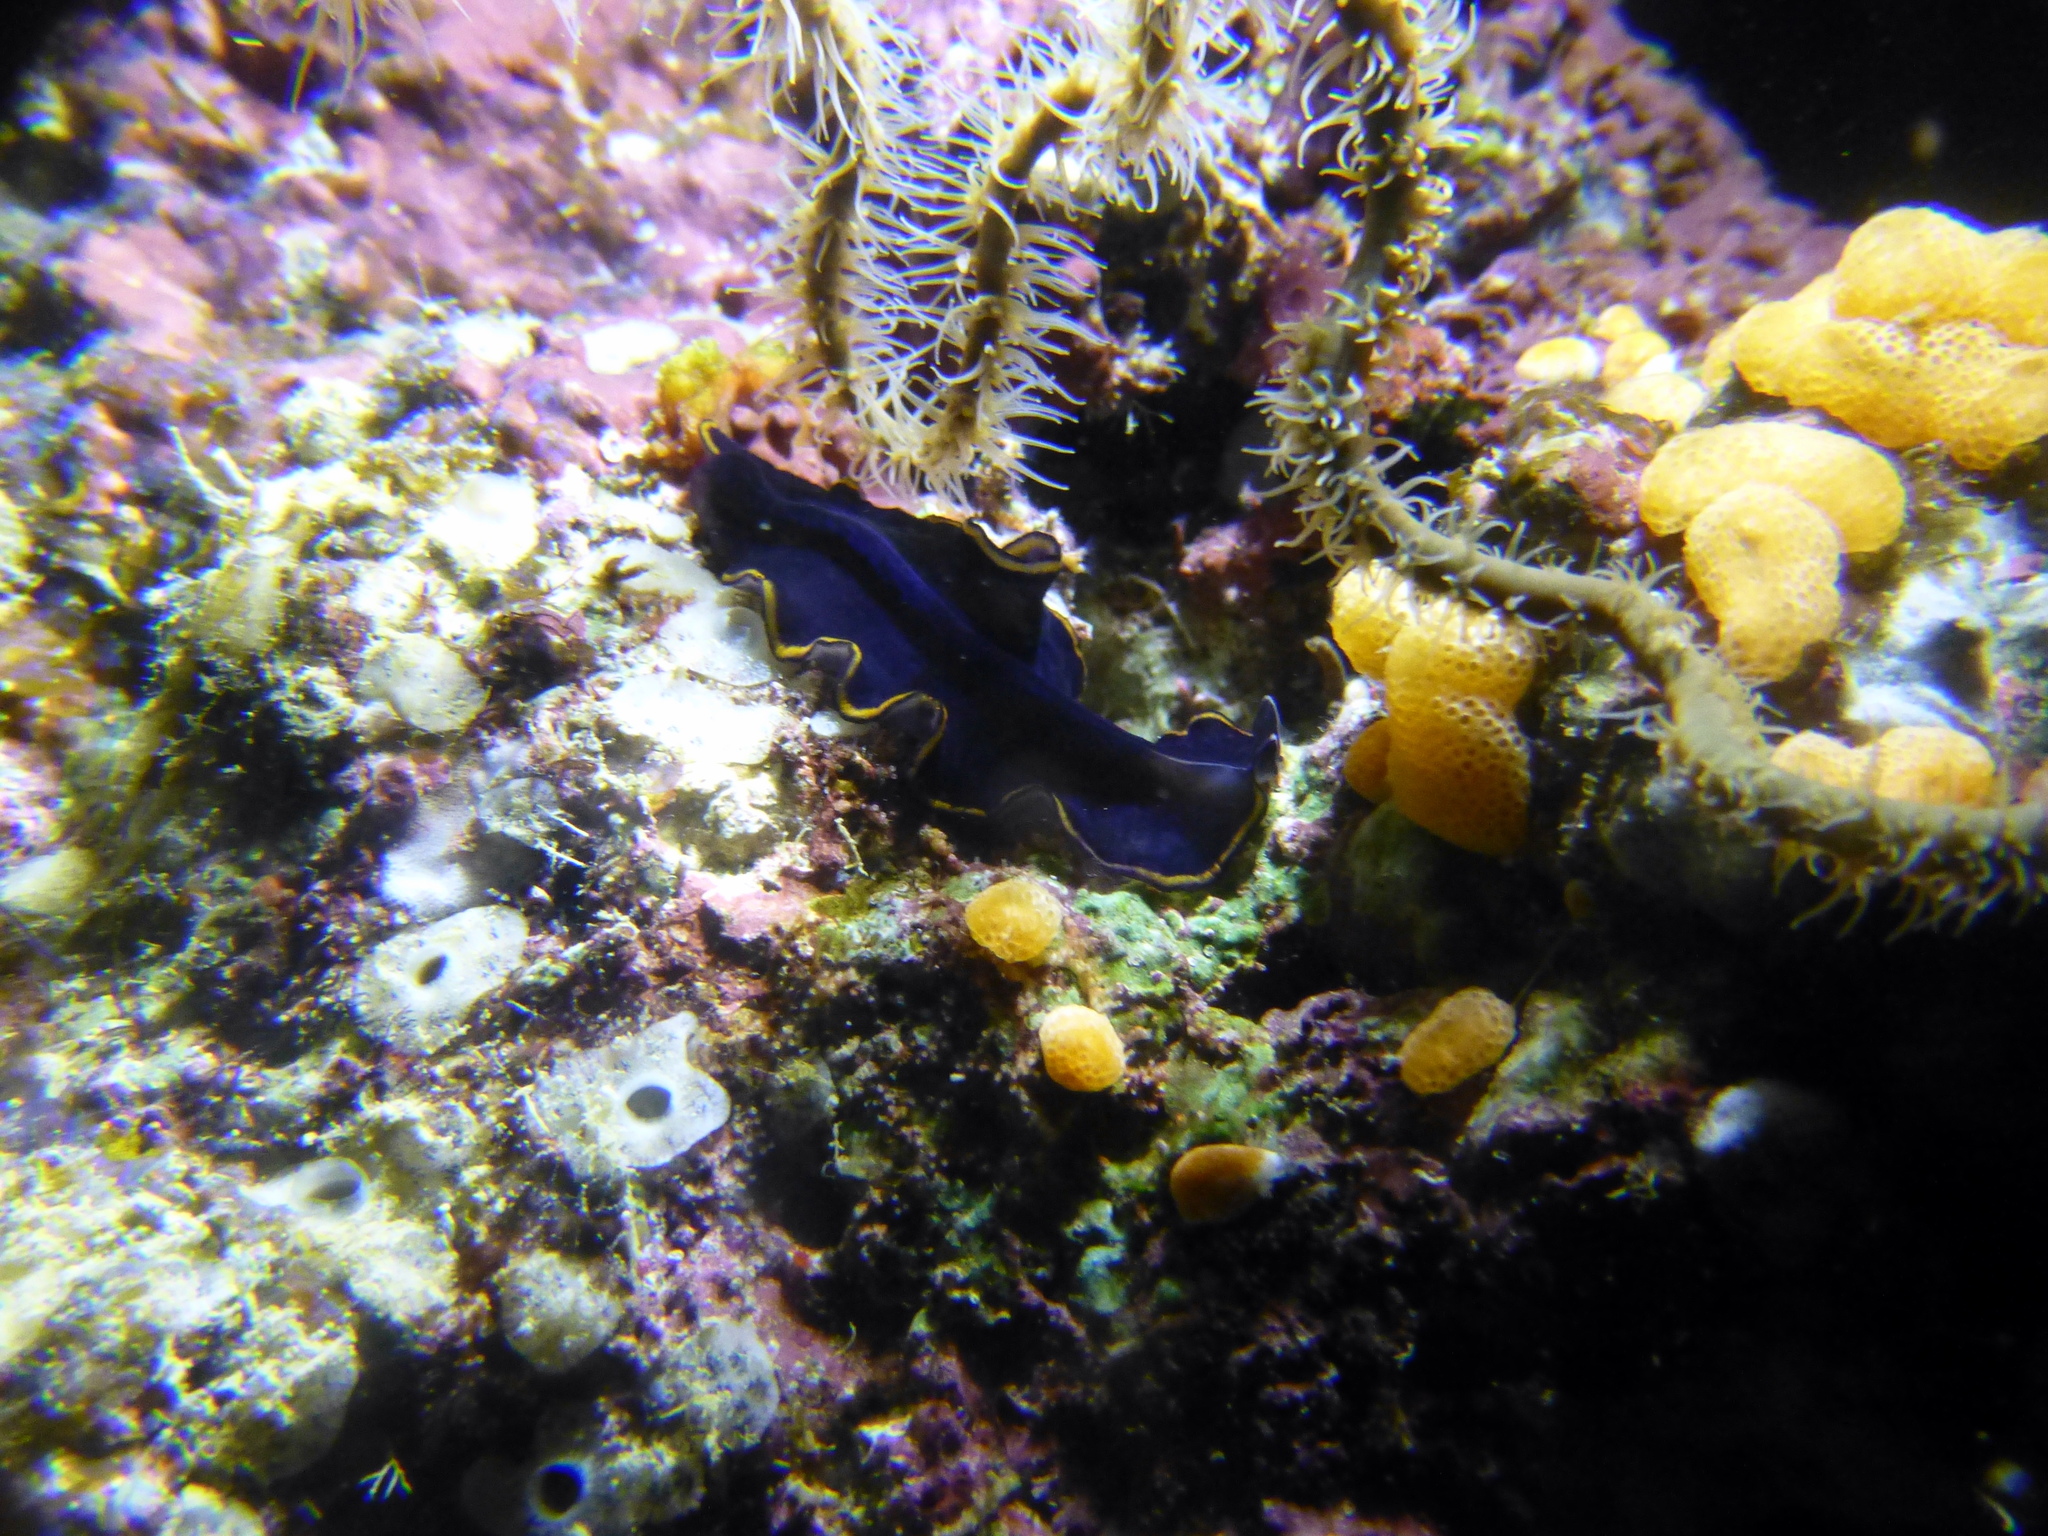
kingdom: Animalia
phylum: Platyhelminthes
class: Turbellaria
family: Pseudocerotidae
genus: Pseudobiceros
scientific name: Pseudobiceros splendidus
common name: Red-rim flatworm
